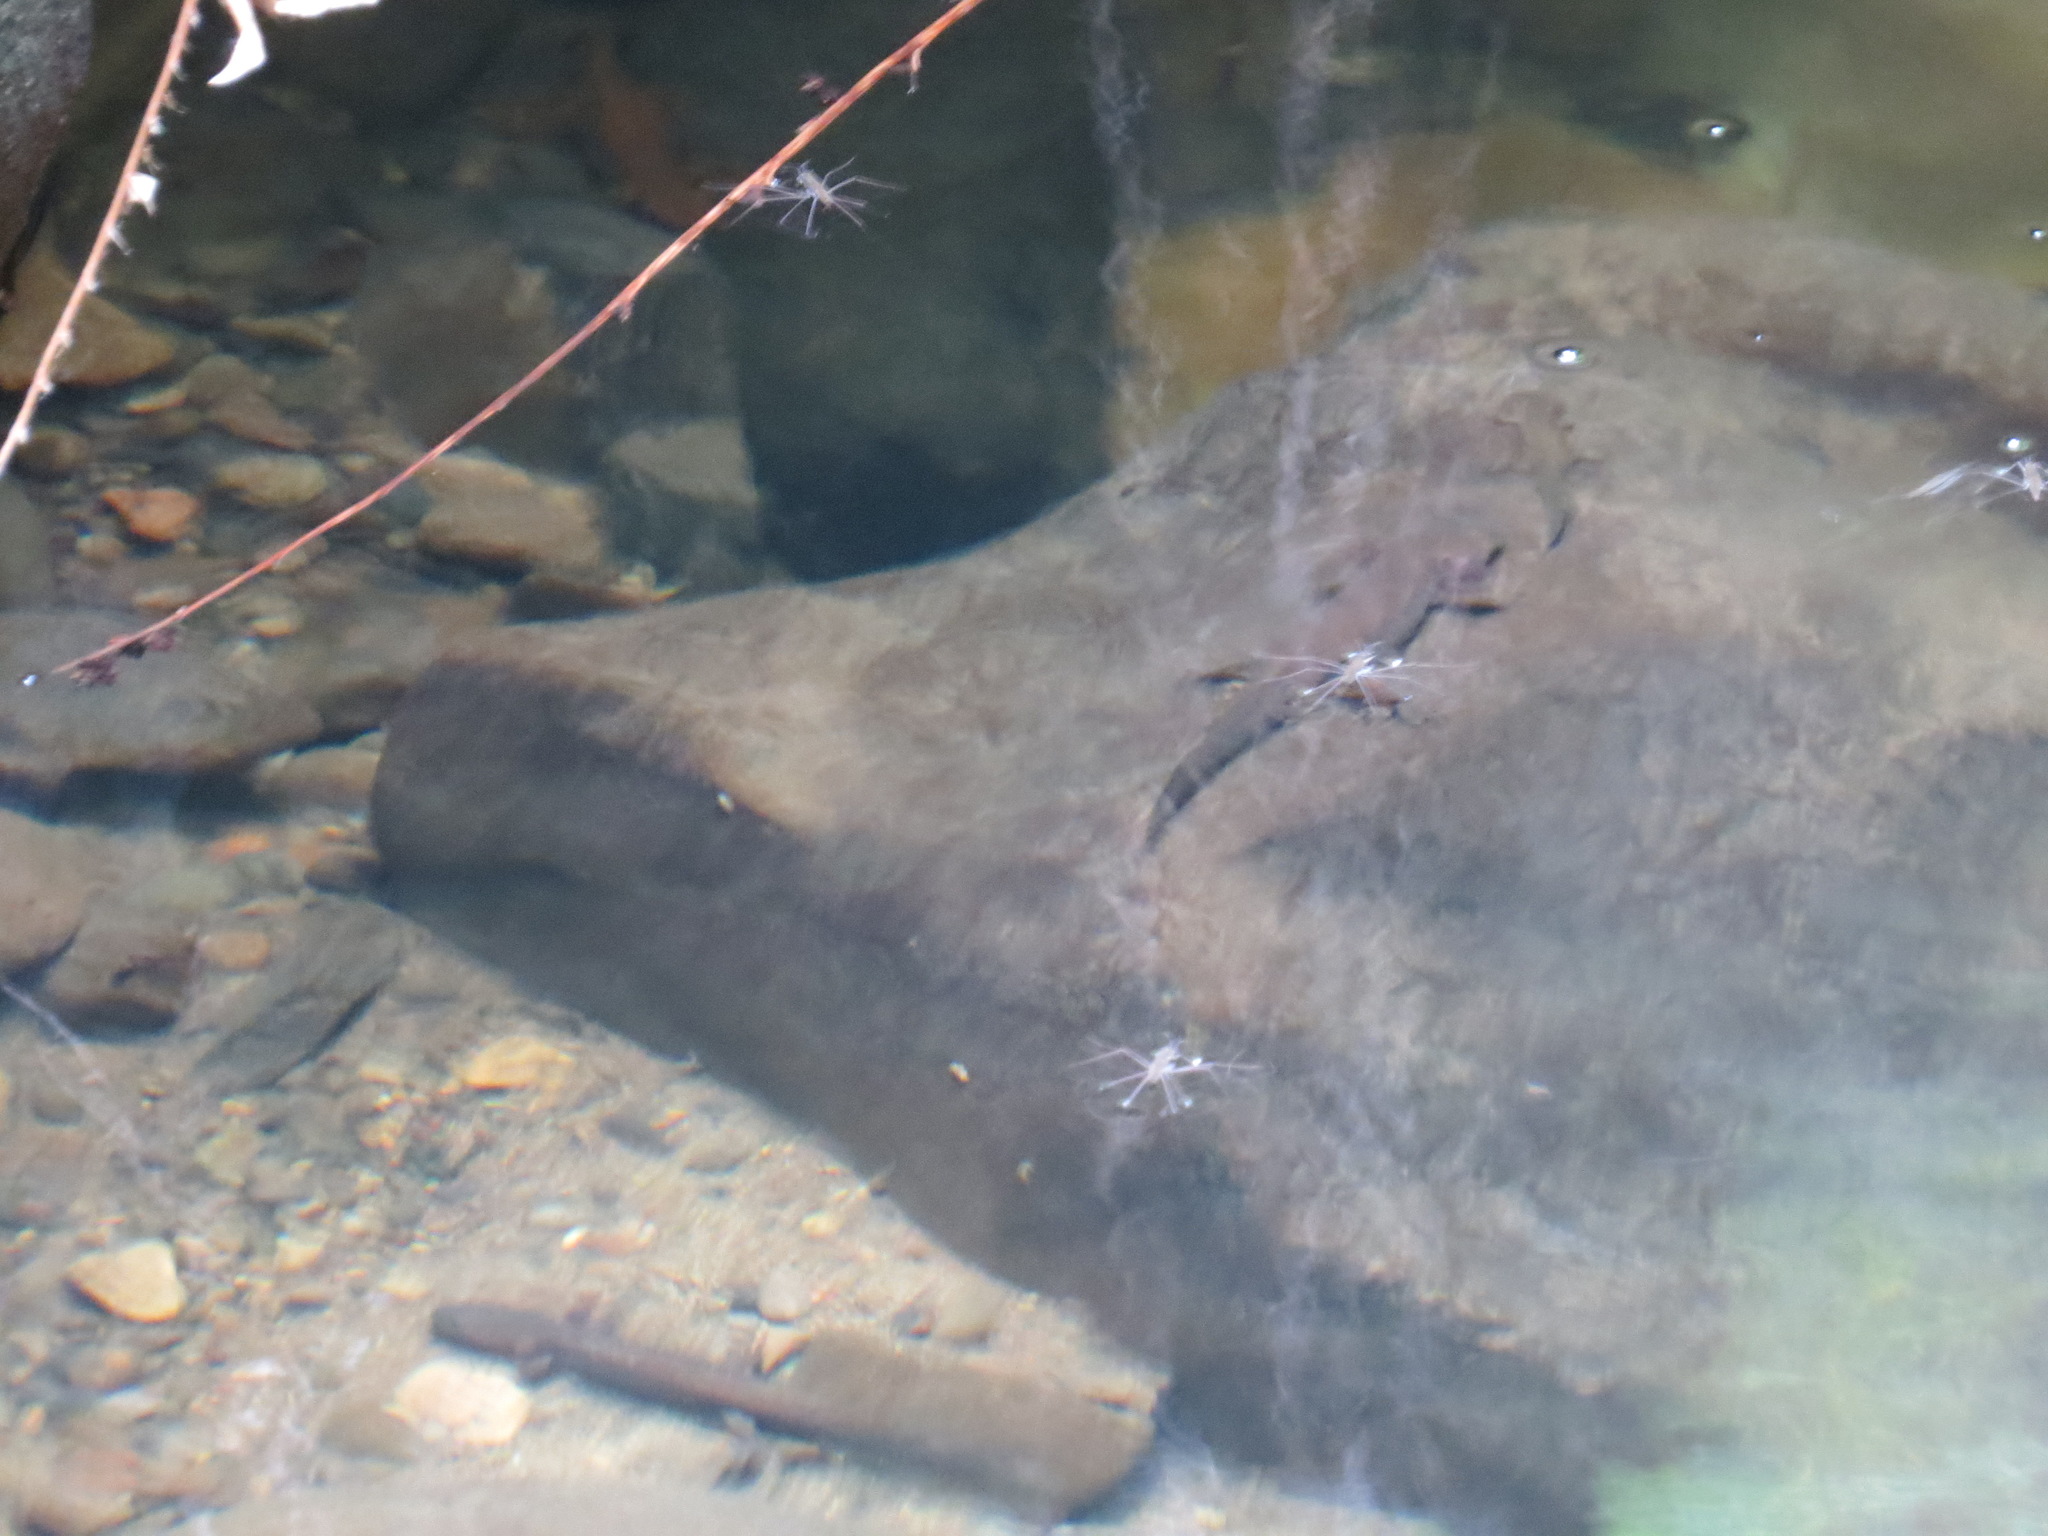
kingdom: Animalia
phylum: Chordata
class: Amphibia
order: Caudata
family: Ambystomatidae
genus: Dicamptodon
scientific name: Dicamptodon ensatus
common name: California giant salamander
